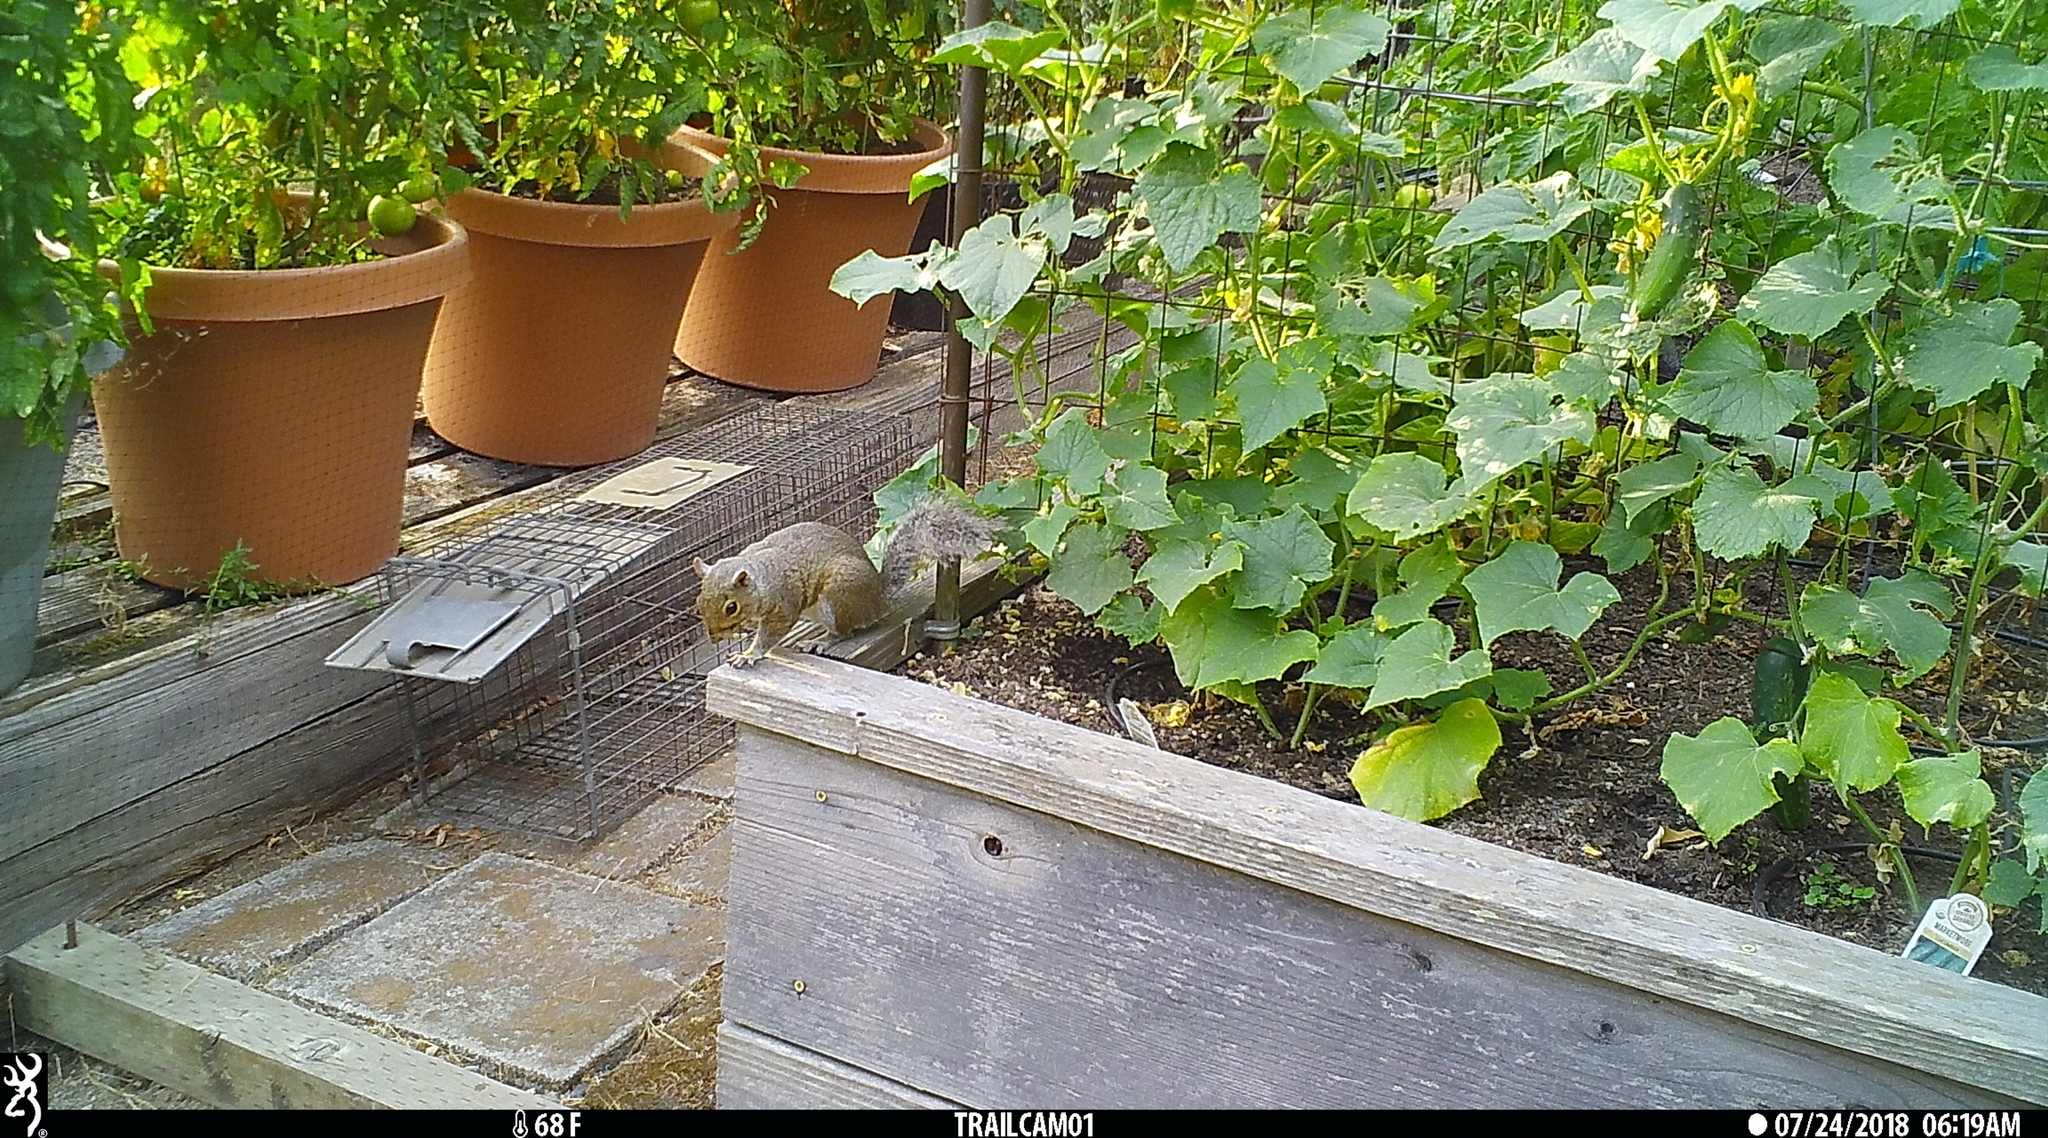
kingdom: Animalia
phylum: Chordata
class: Mammalia
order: Rodentia
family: Sciuridae
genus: Sciurus
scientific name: Sciurus carolinensis
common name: Eastern gray squirrel
